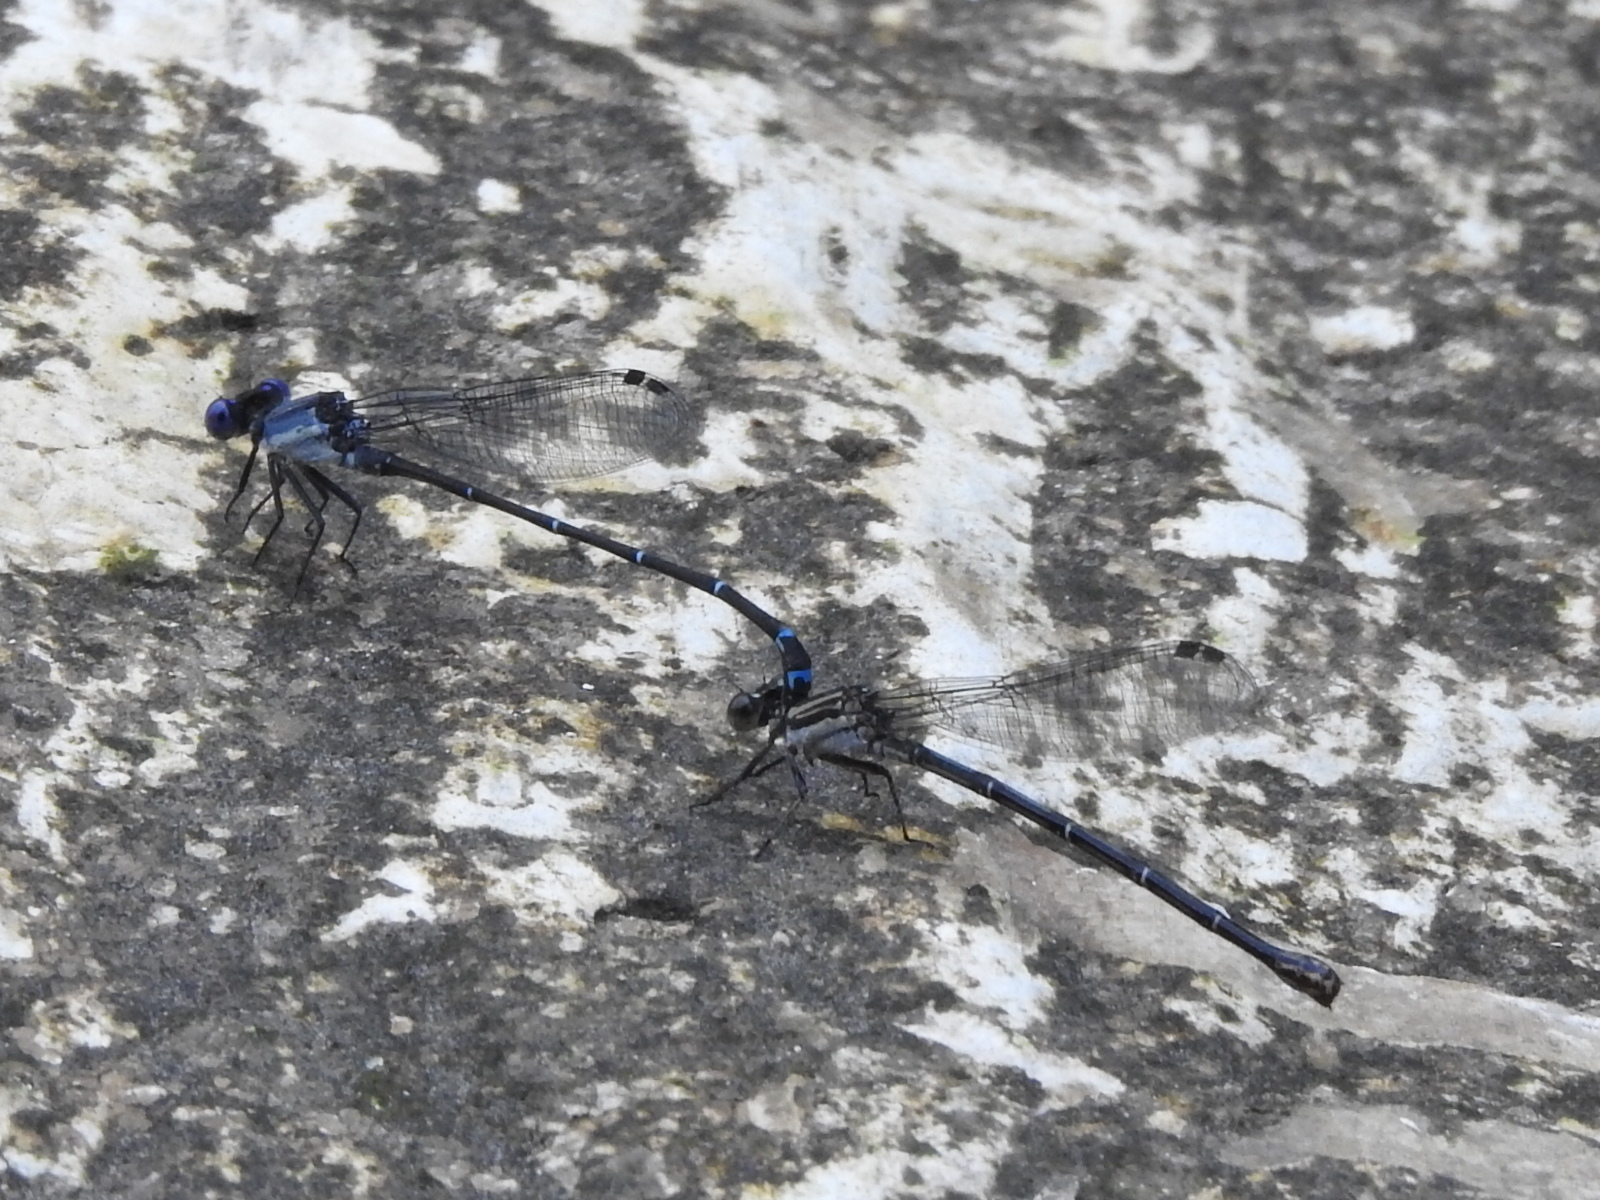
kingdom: Animalia
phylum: Arthropoda
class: Insecta
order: Odonata
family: Coenagrionidae
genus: Argia
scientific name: Argia translata
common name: Dusky dancer
